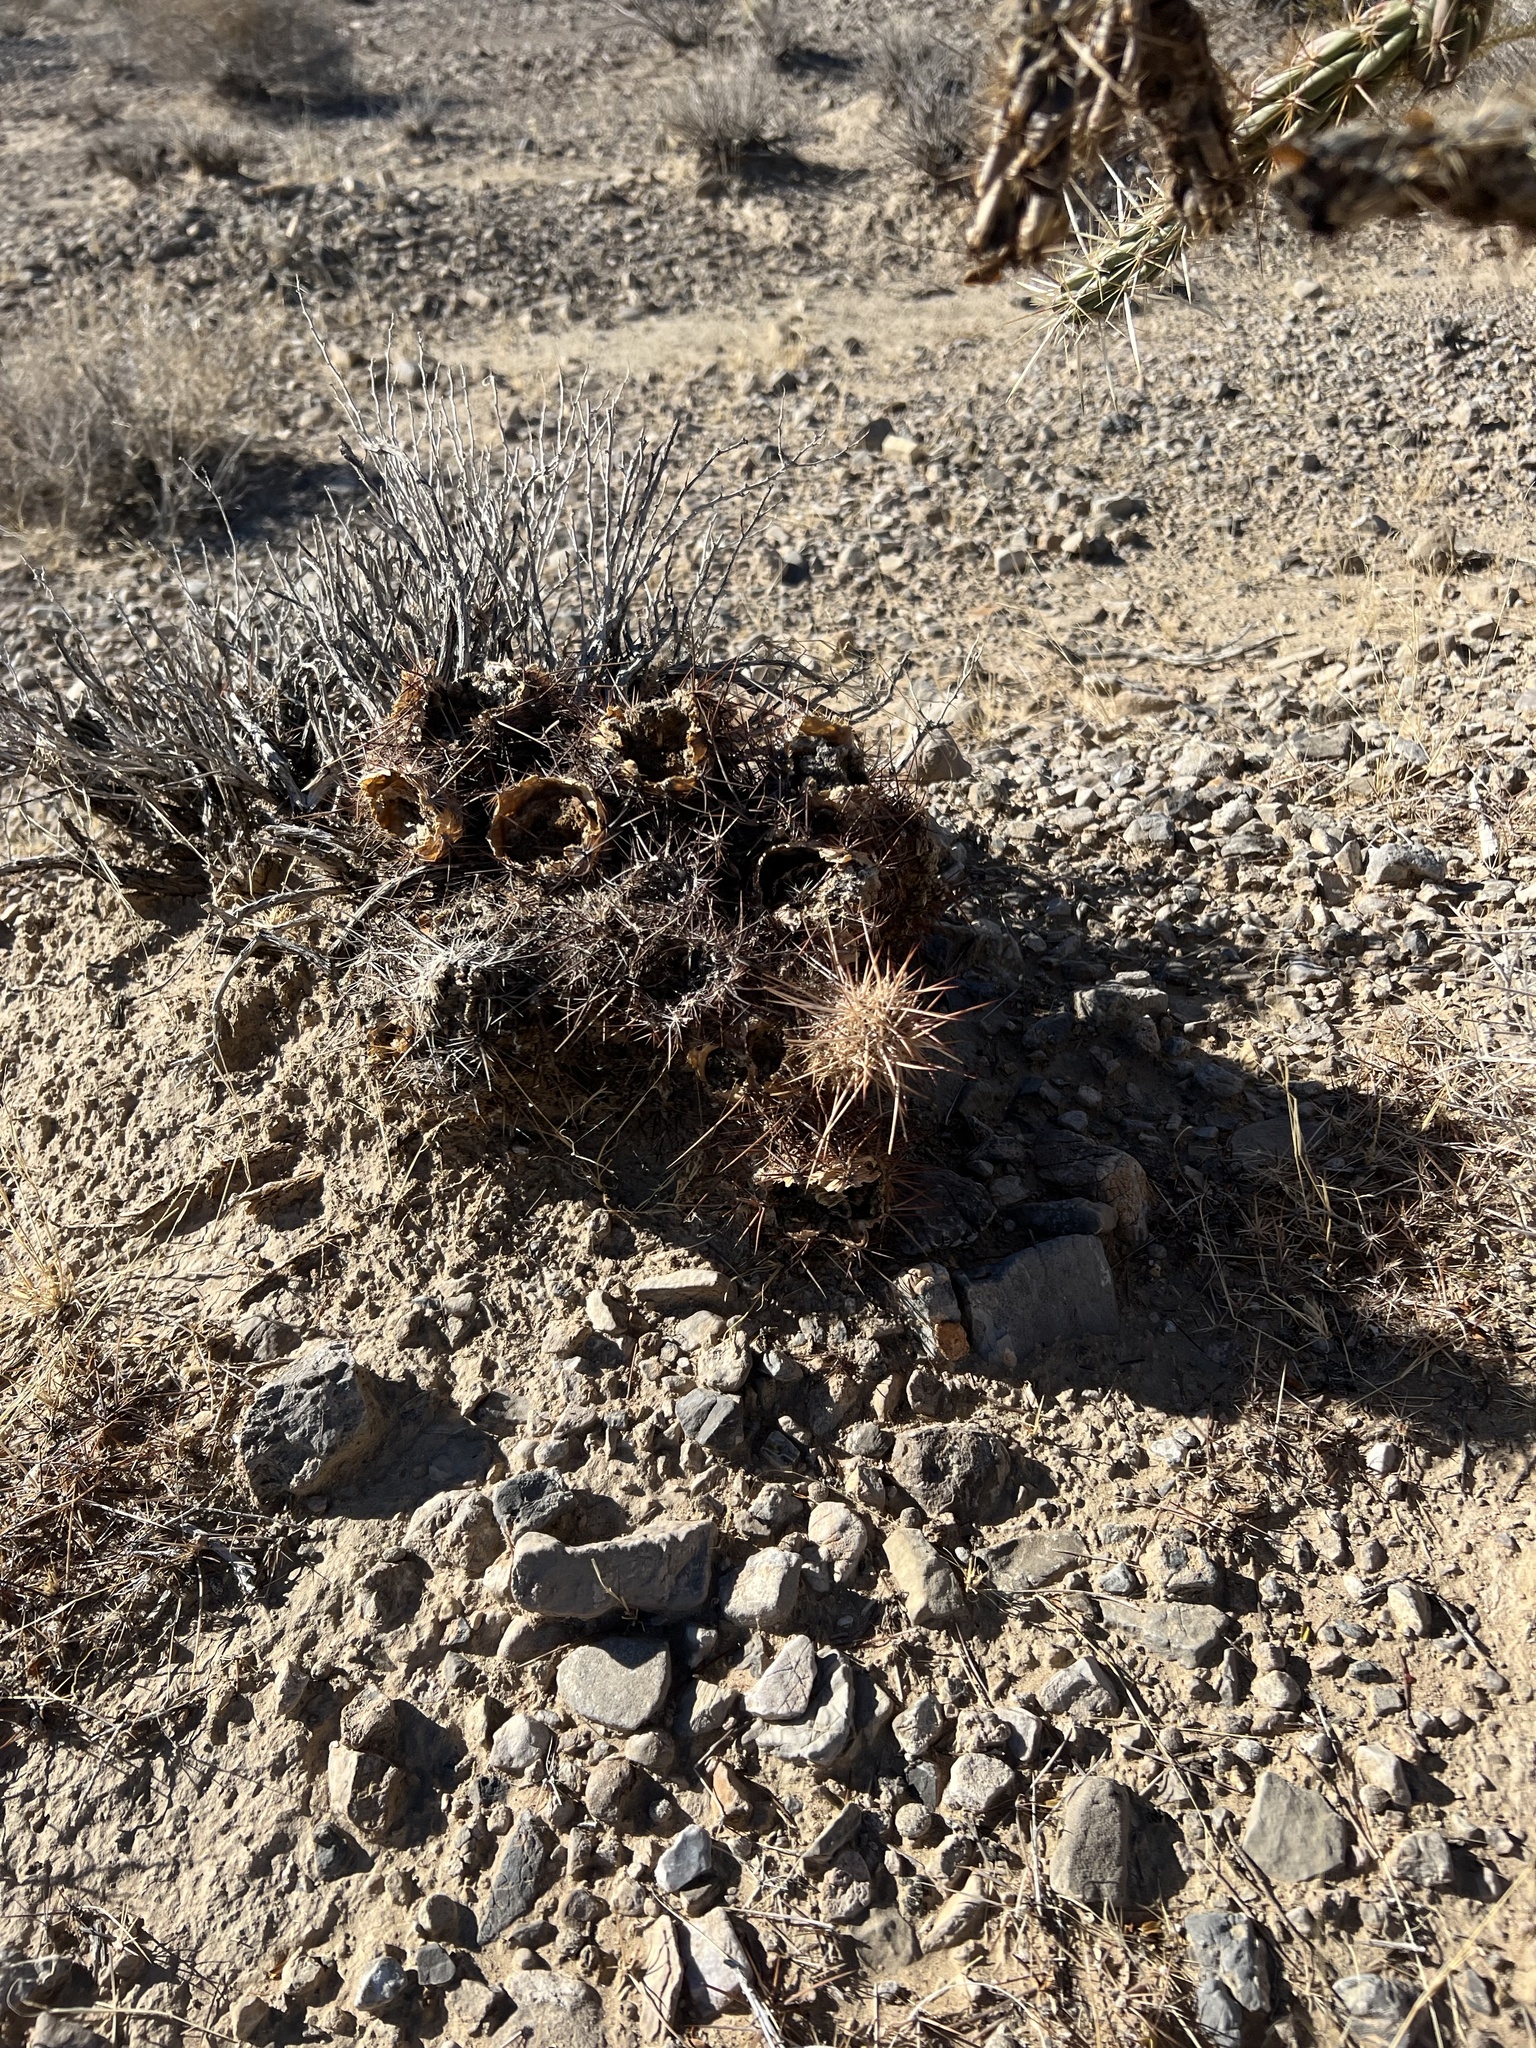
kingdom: Plantae
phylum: Tracheophyta
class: Magnoliopsida
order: Caryophyllales
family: Cactaceae
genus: Echinocereus
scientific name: Echinocereus engelmannii
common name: Engelmann's hedgehog cactus
